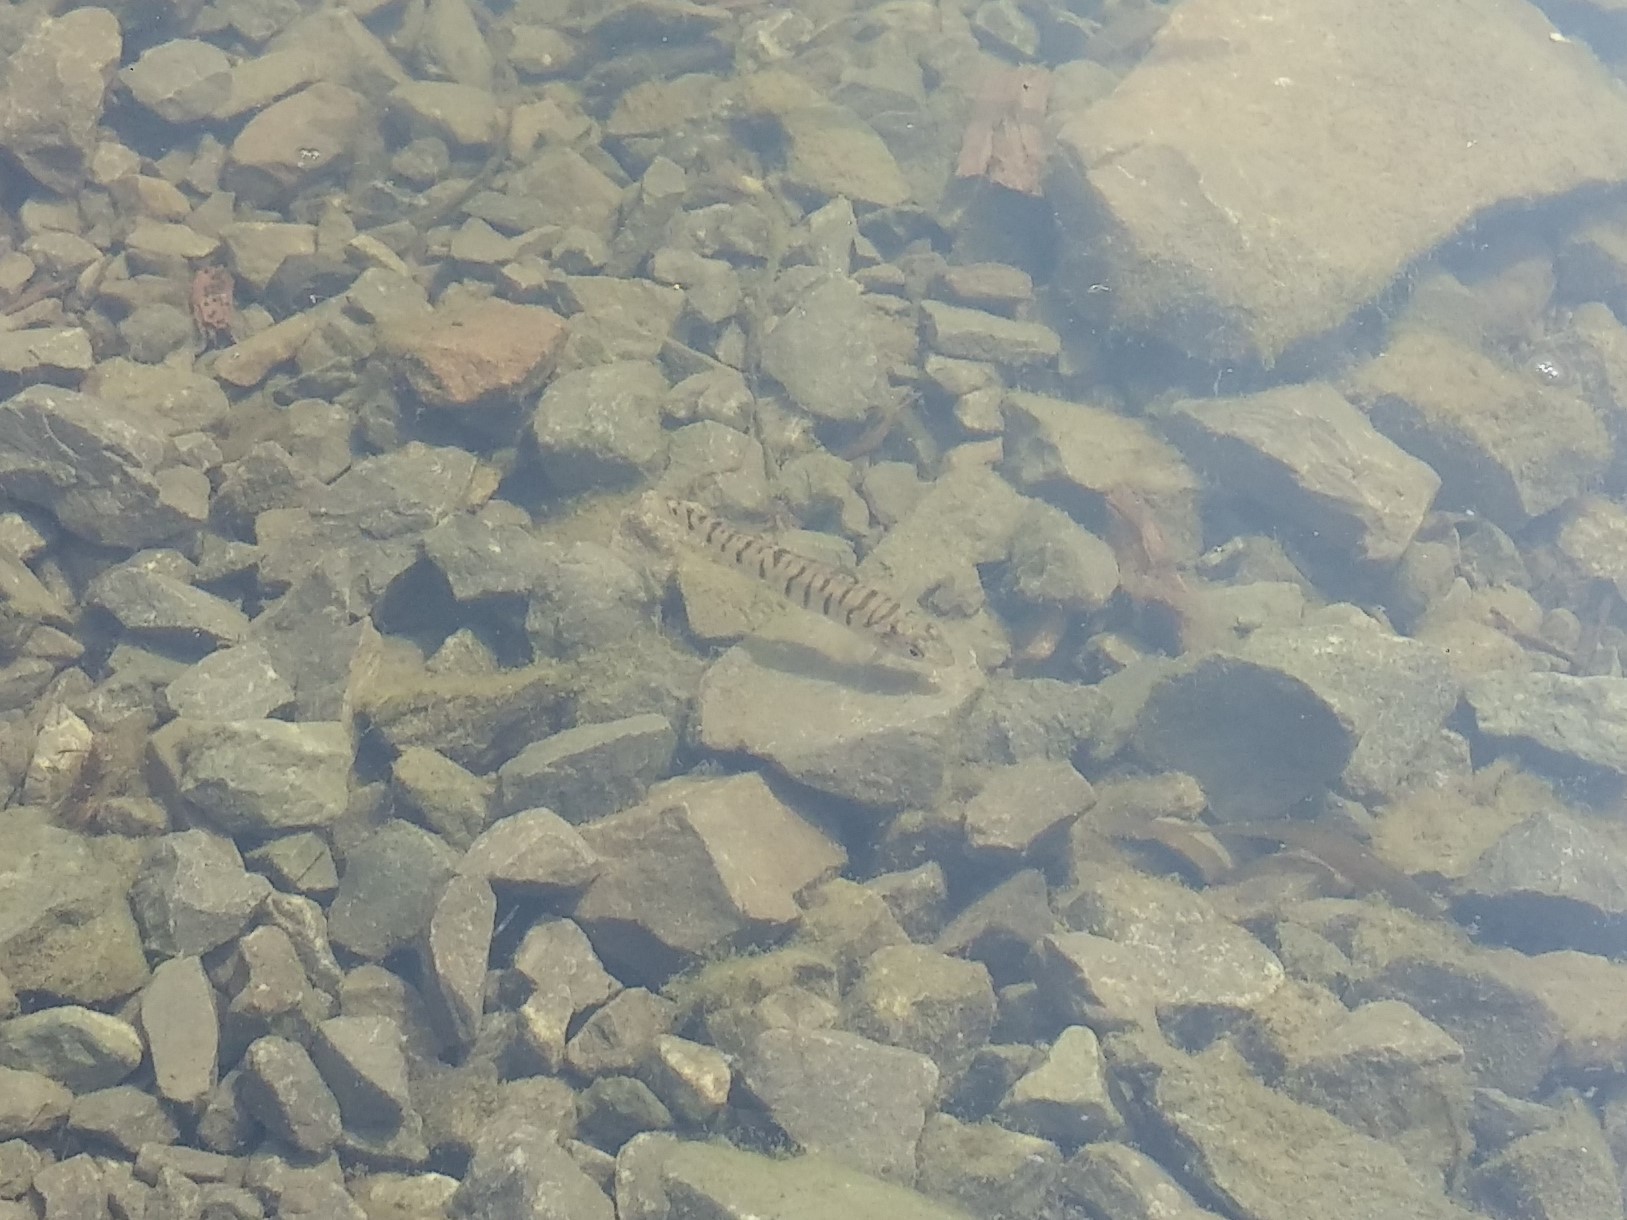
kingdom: Animalia
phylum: Chordata
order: Perciformes
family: Percidae
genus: Percina
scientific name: Percina caprodes
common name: Logperch
